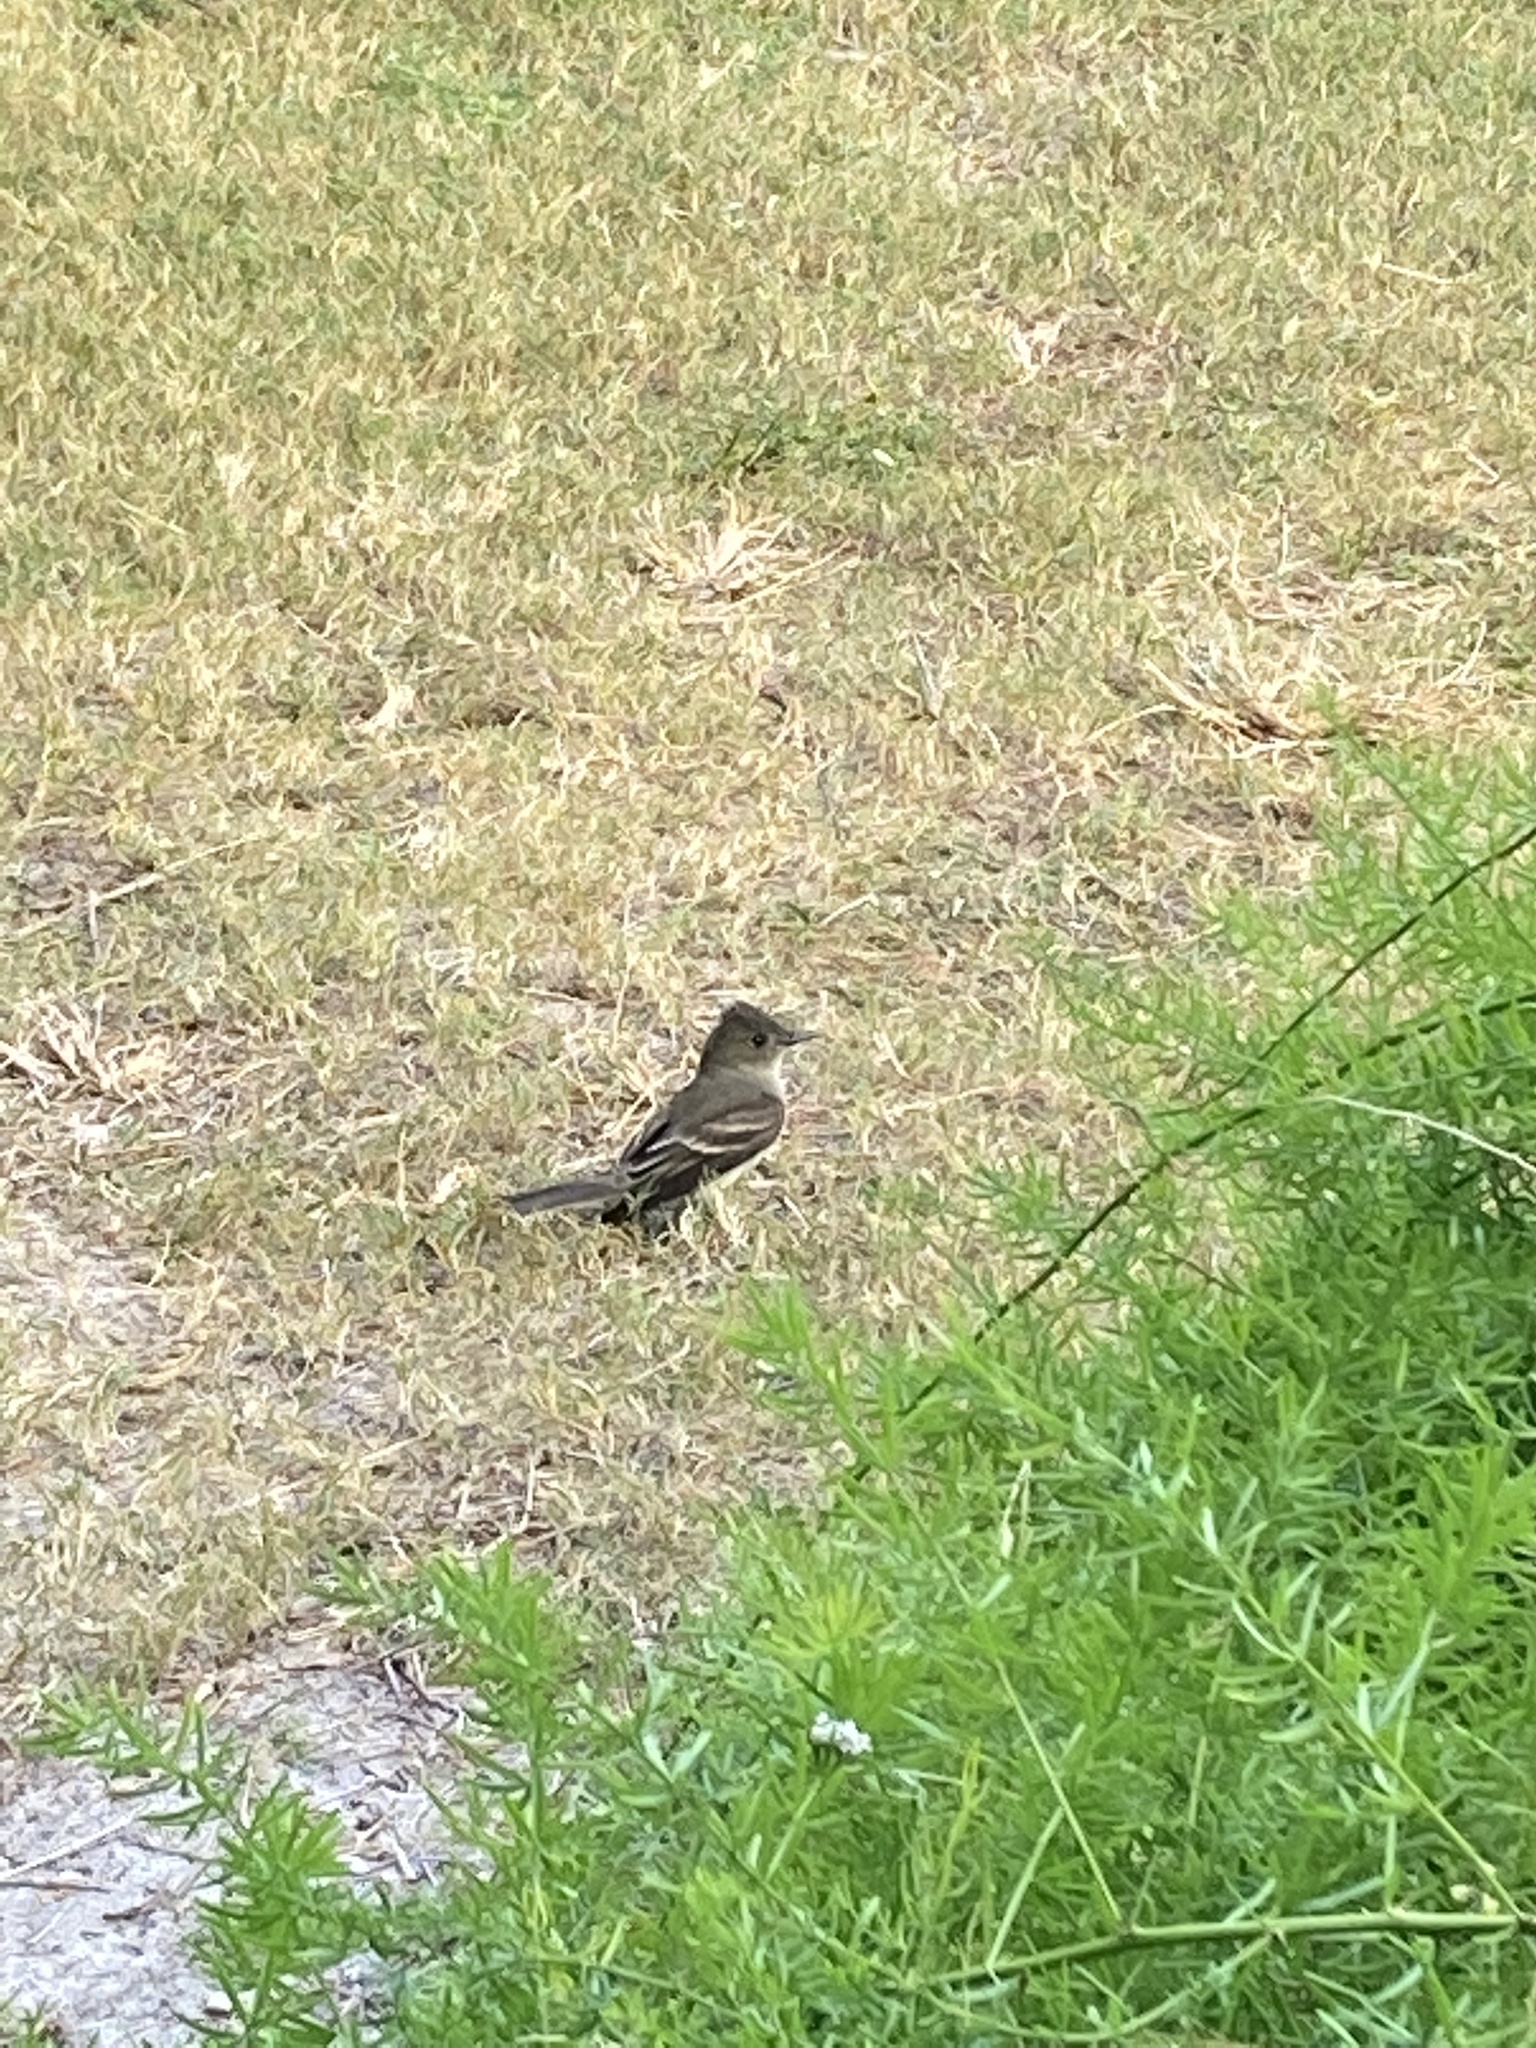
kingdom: Animalia
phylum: Chordata
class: Aves
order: Passeriformes
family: Tyrannidae
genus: Contopus
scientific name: Contopus virens
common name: Eastern wood-pewee
